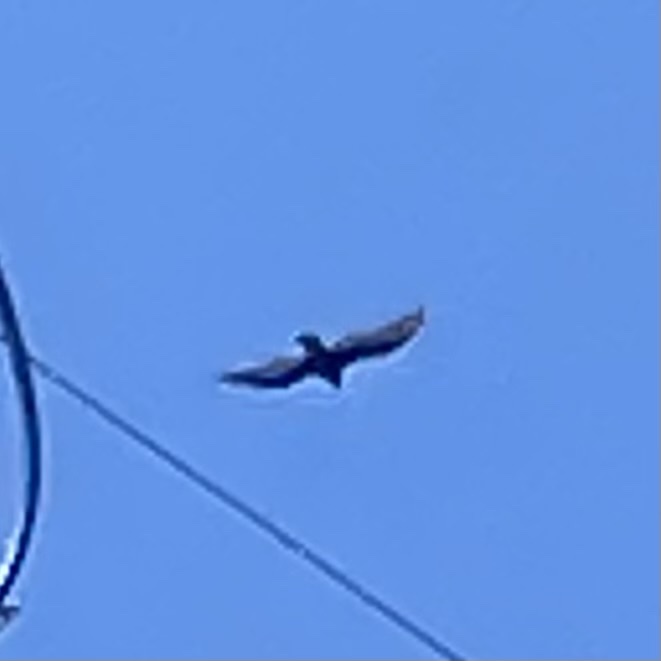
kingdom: Animalia
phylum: Chordata
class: Aves
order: Accipitriformes
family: Cathartidae
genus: Cathartes
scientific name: Cathartes aura
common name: Turkey vulture
